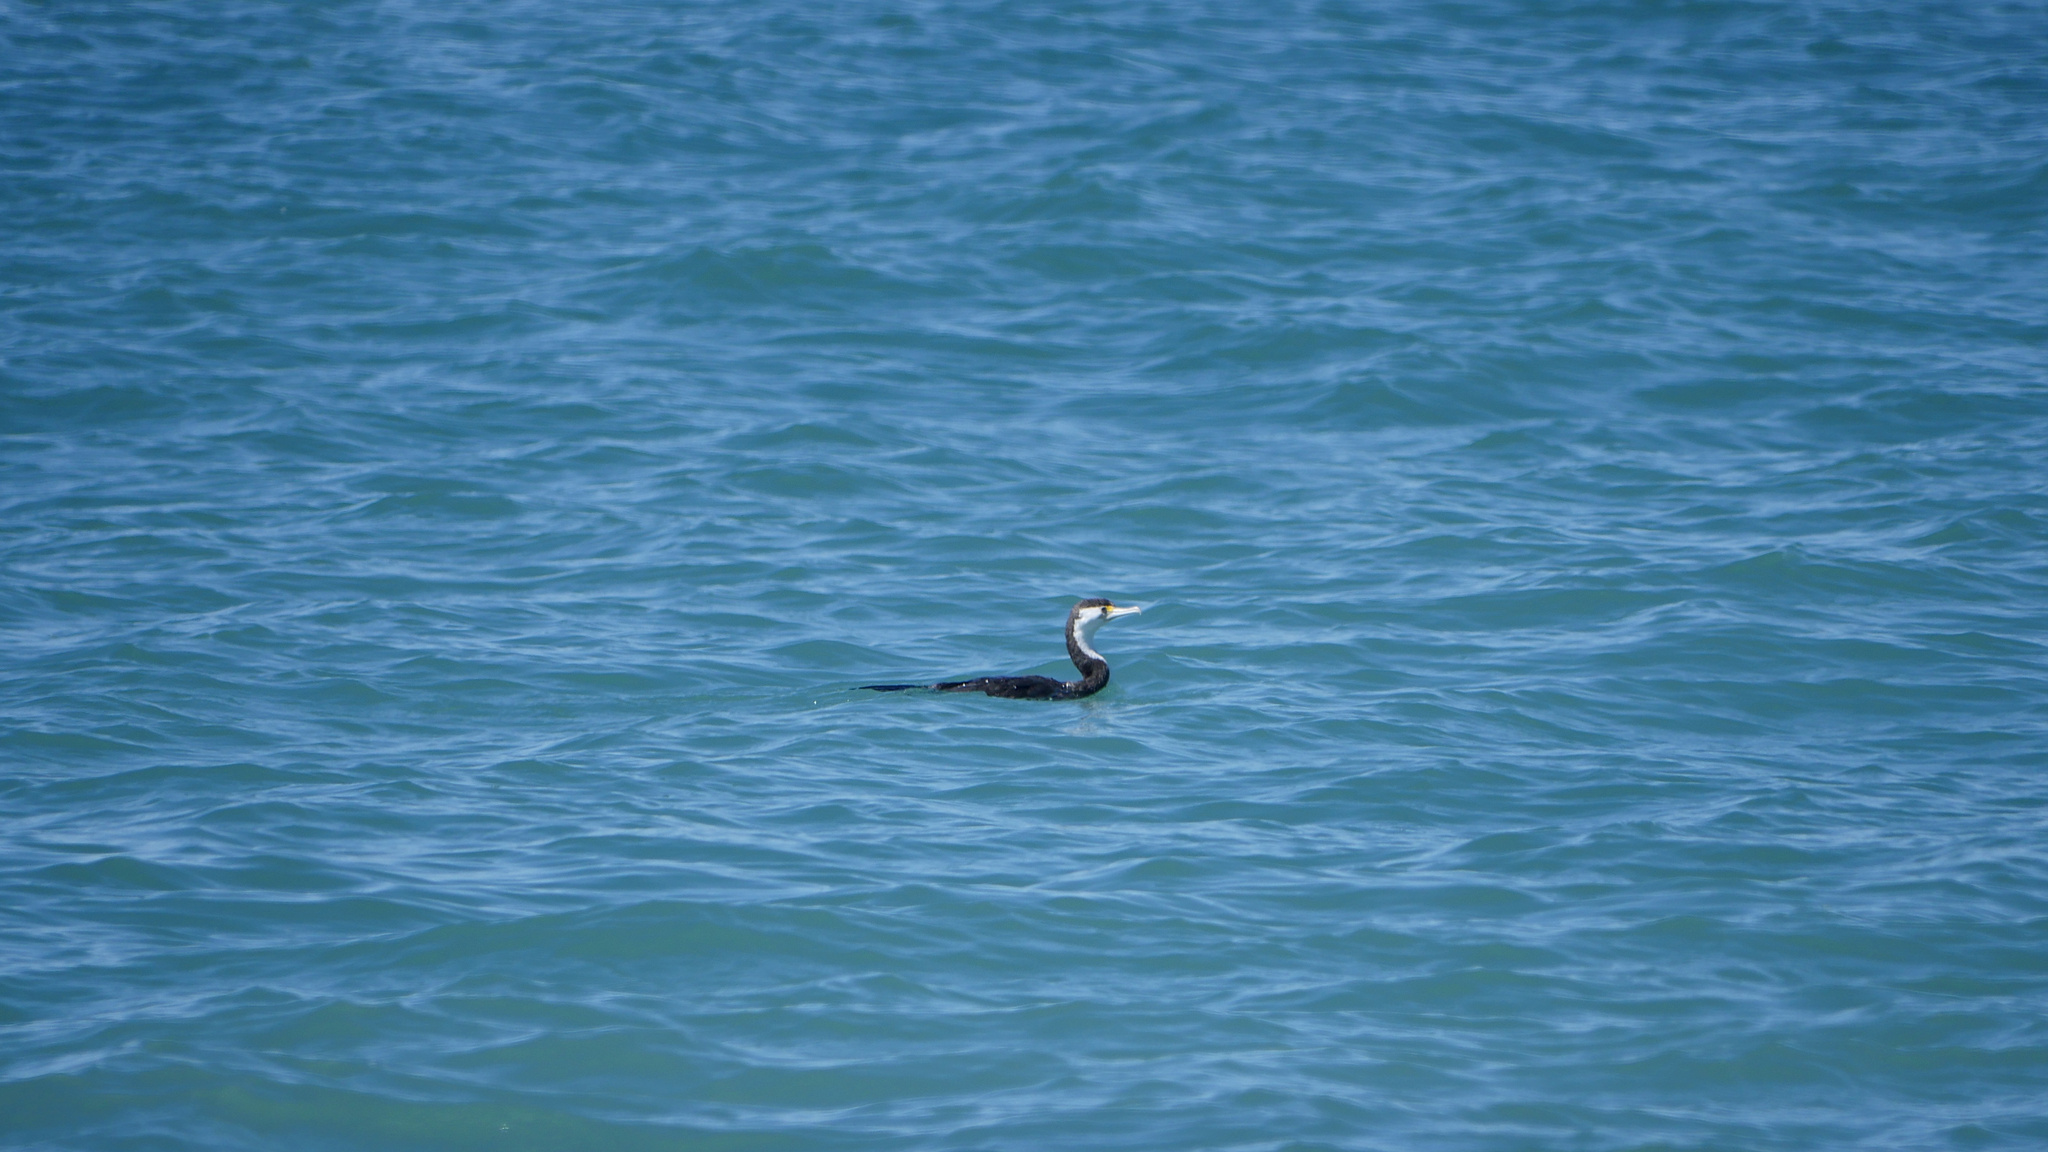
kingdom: Animalia
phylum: Chordata
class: Aves
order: Suliformes
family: Phalacrocoracidae
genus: Phalacrocorax
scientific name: Phalacrocorax varius
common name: Pied cormorant
